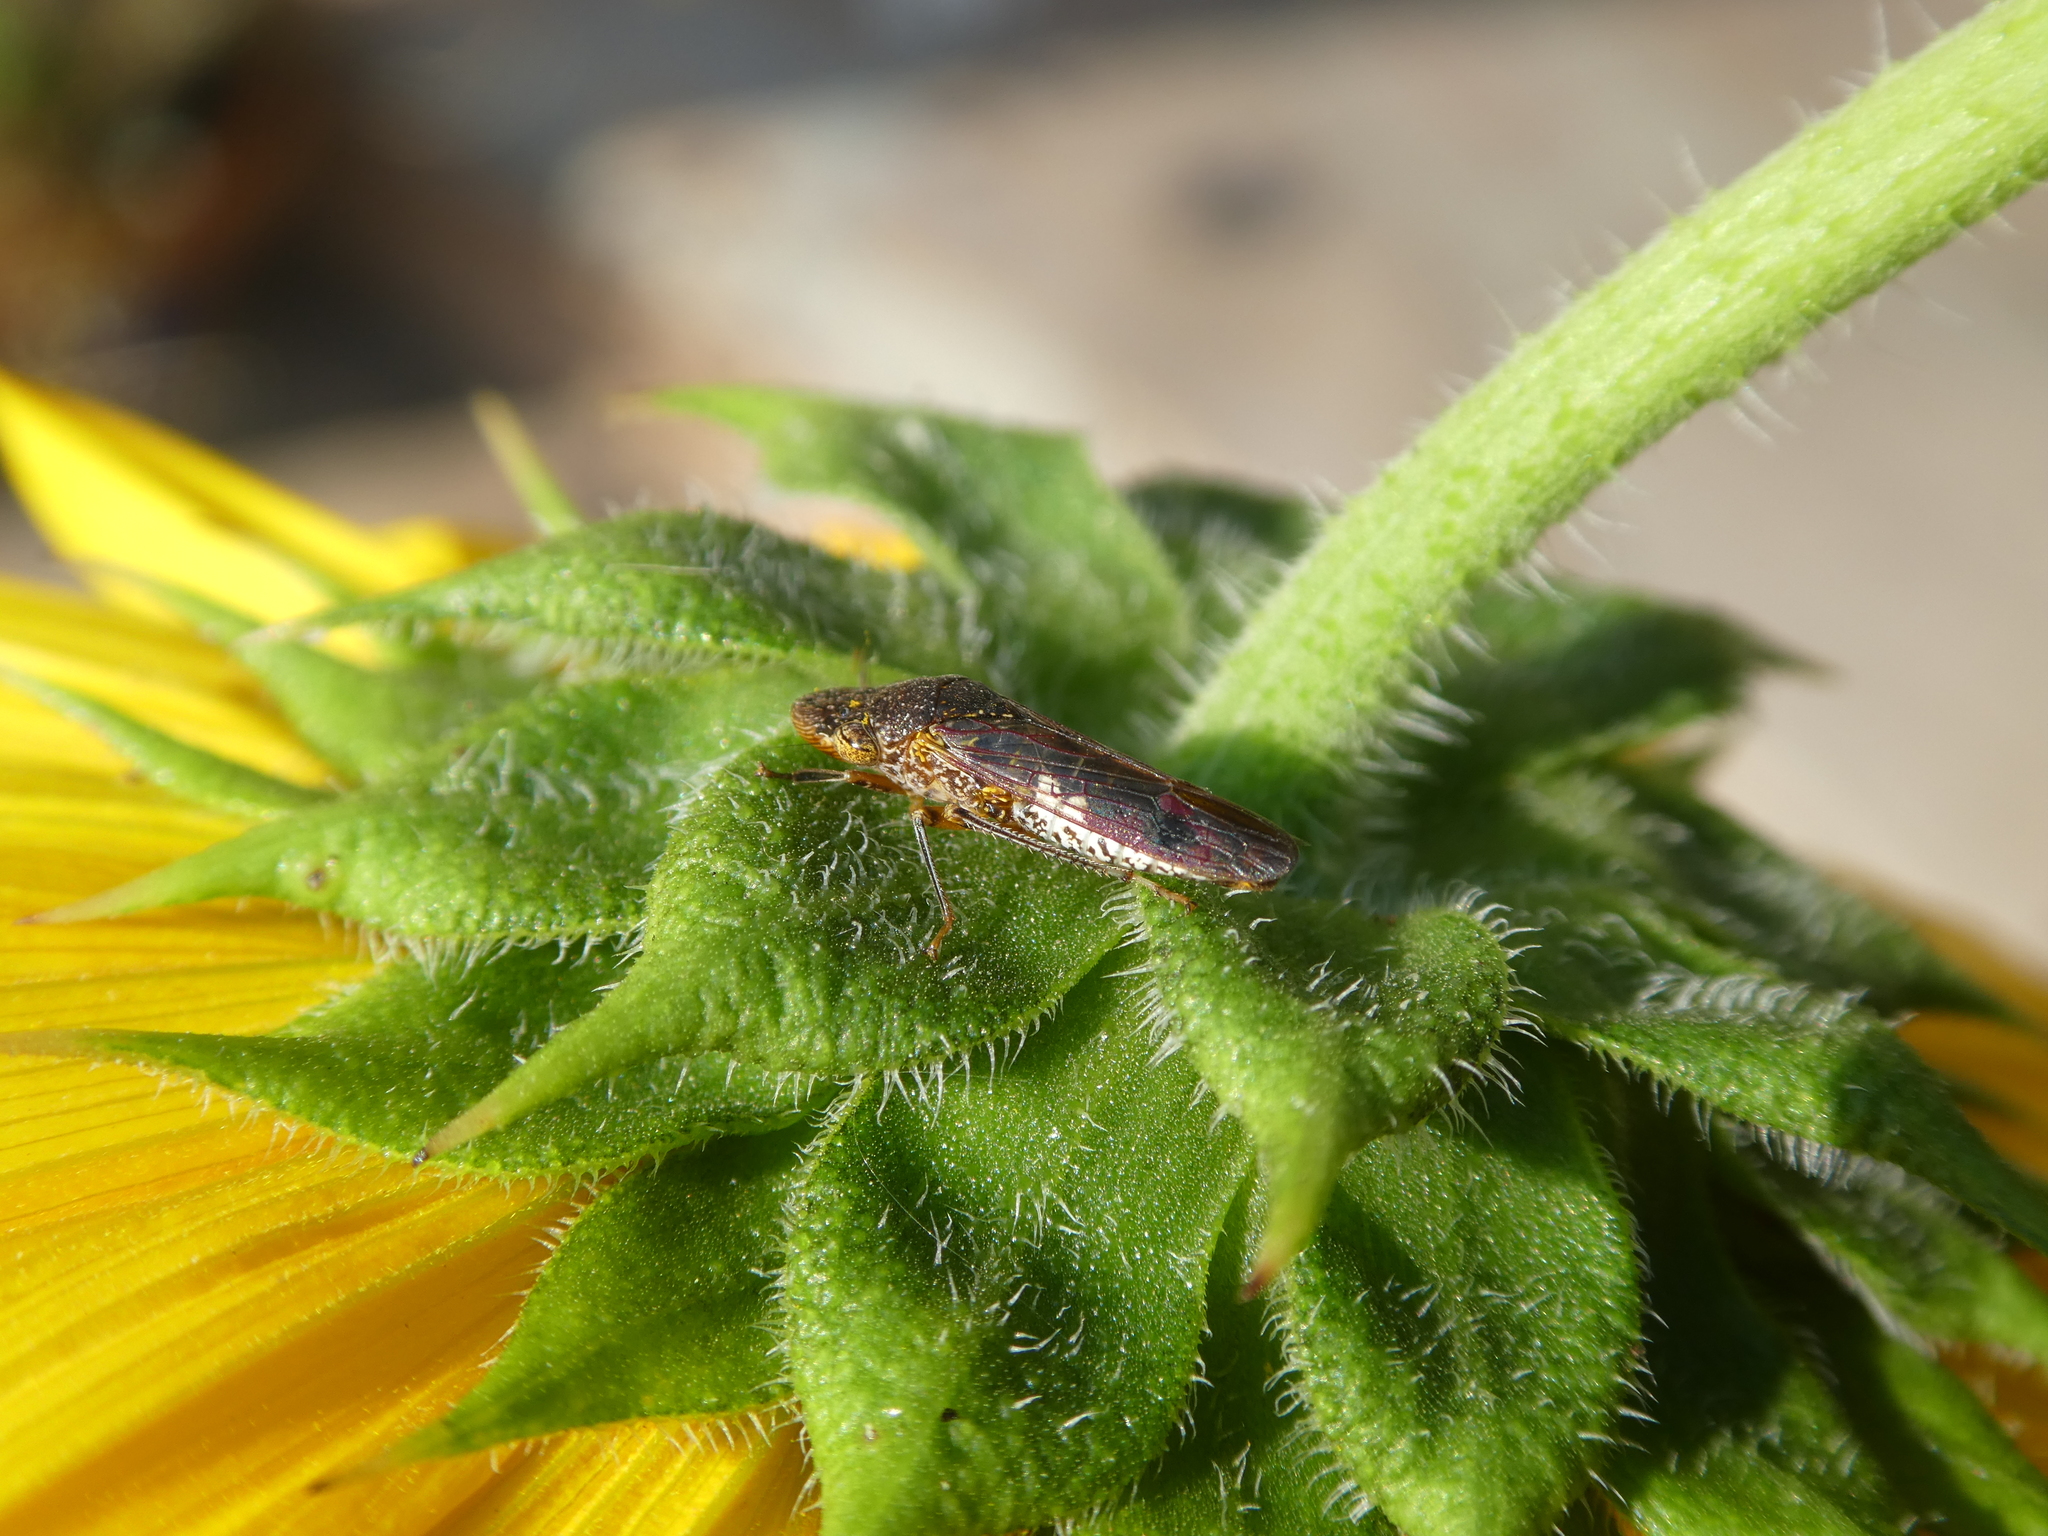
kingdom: Animalia
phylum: Arthropoda
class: Insecta
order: Hemiptera
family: Cicadellidae
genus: Homalodisca
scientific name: Homalodisca vitripennis
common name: Glassy-winged sharpshooter
